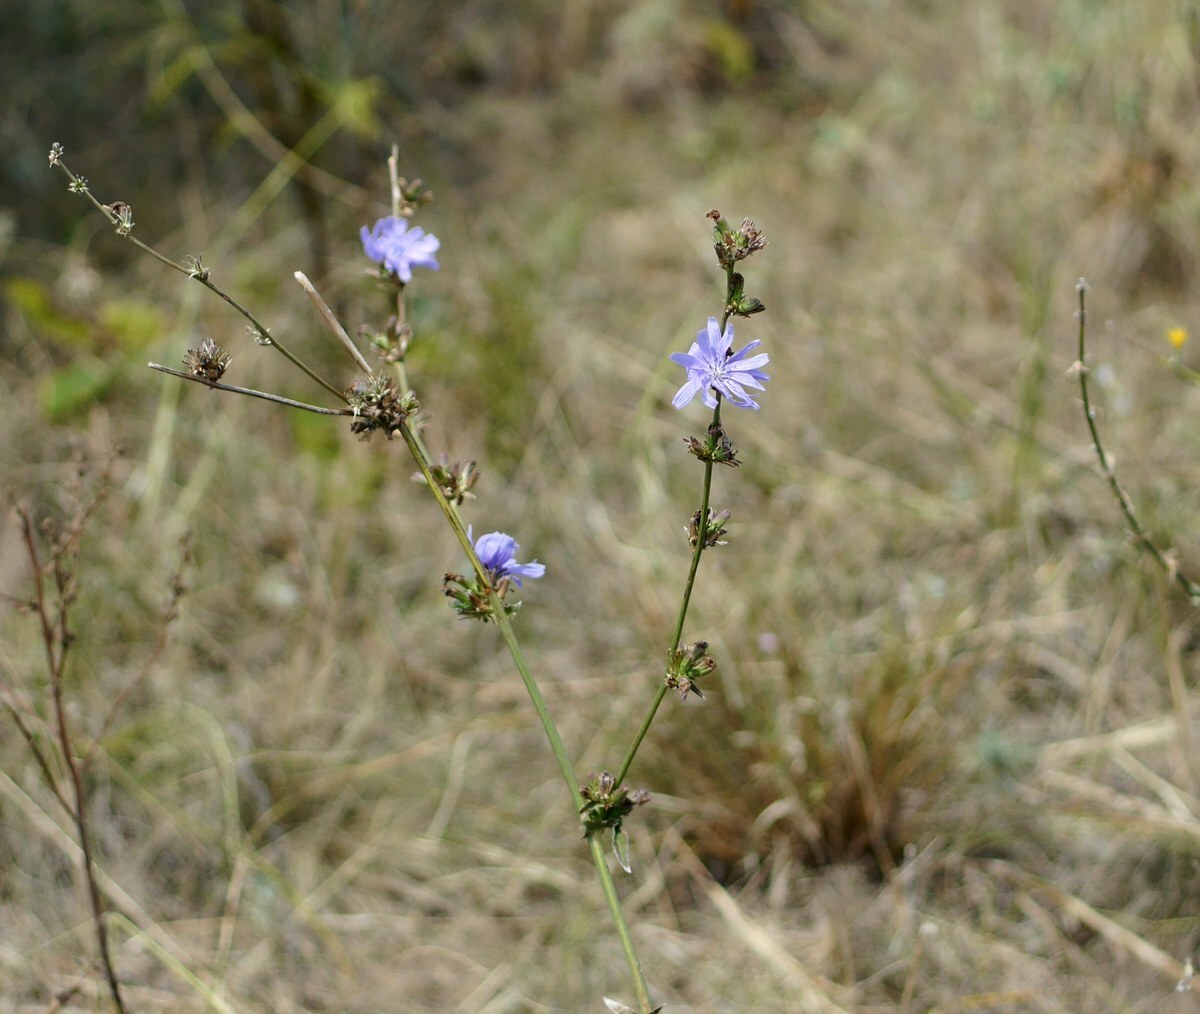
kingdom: Plantae
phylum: Tracheophyta
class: Magnoliopsida
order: Asterales
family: Asteraceae
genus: Cichorium
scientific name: Cichorium intybus
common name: Chicory
